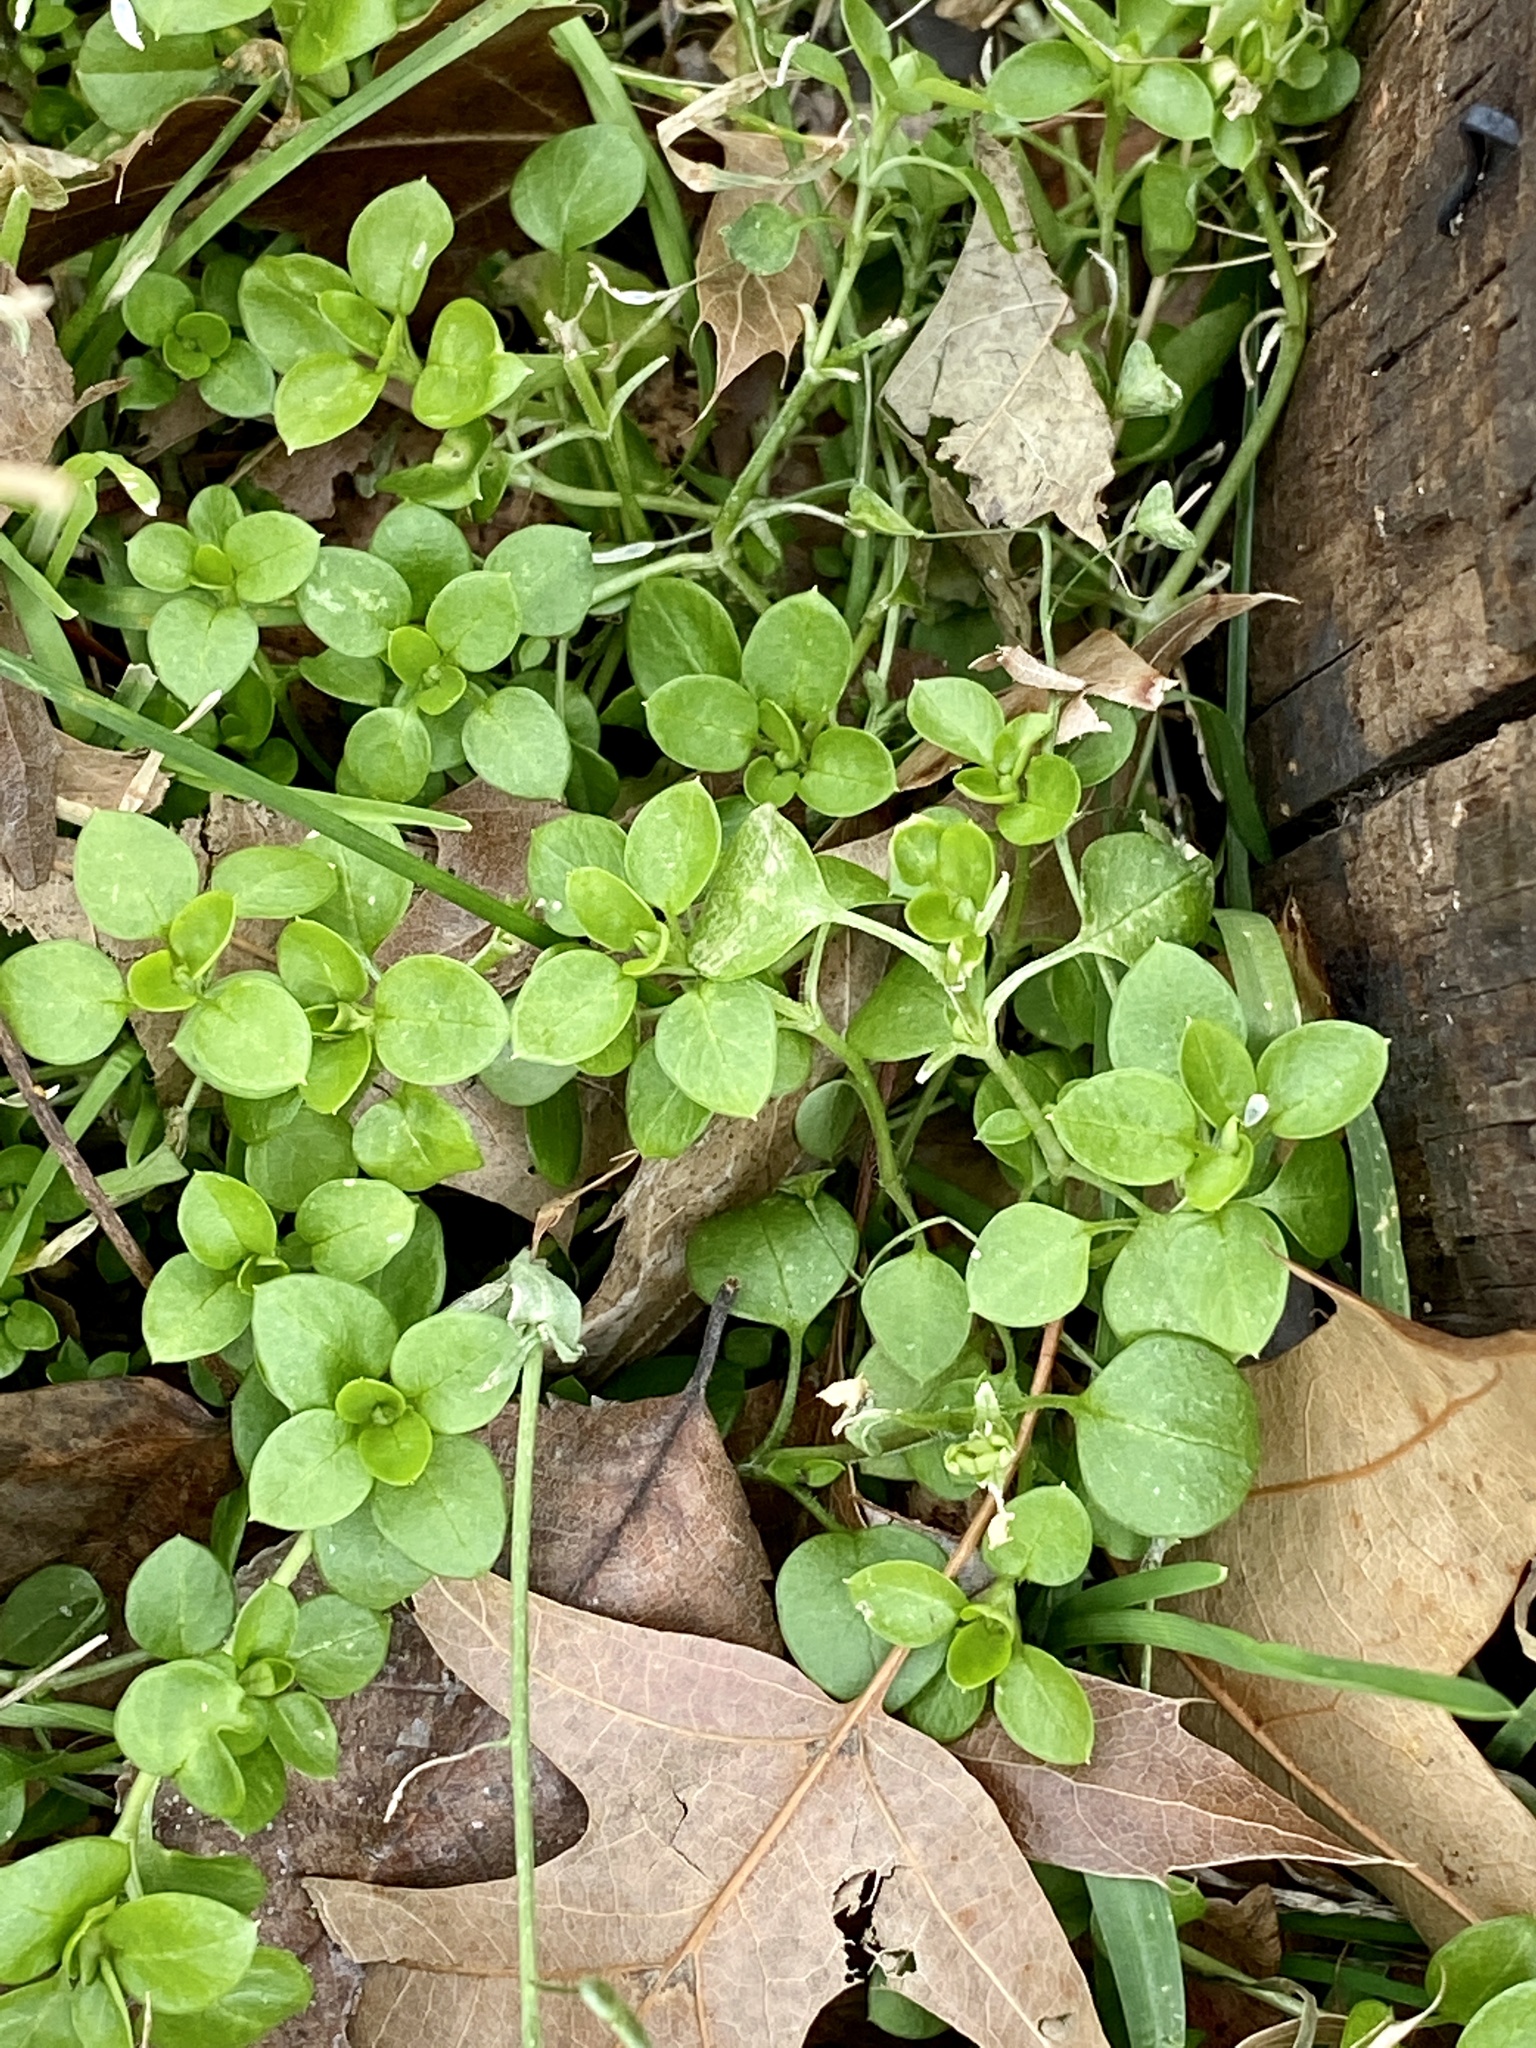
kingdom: Plantae
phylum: Tracheophyta
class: Magnoliopsida
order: Caryophyllales
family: Caryophyllaceae
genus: Stellaria
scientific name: Stellaria media
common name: Common chickweed
